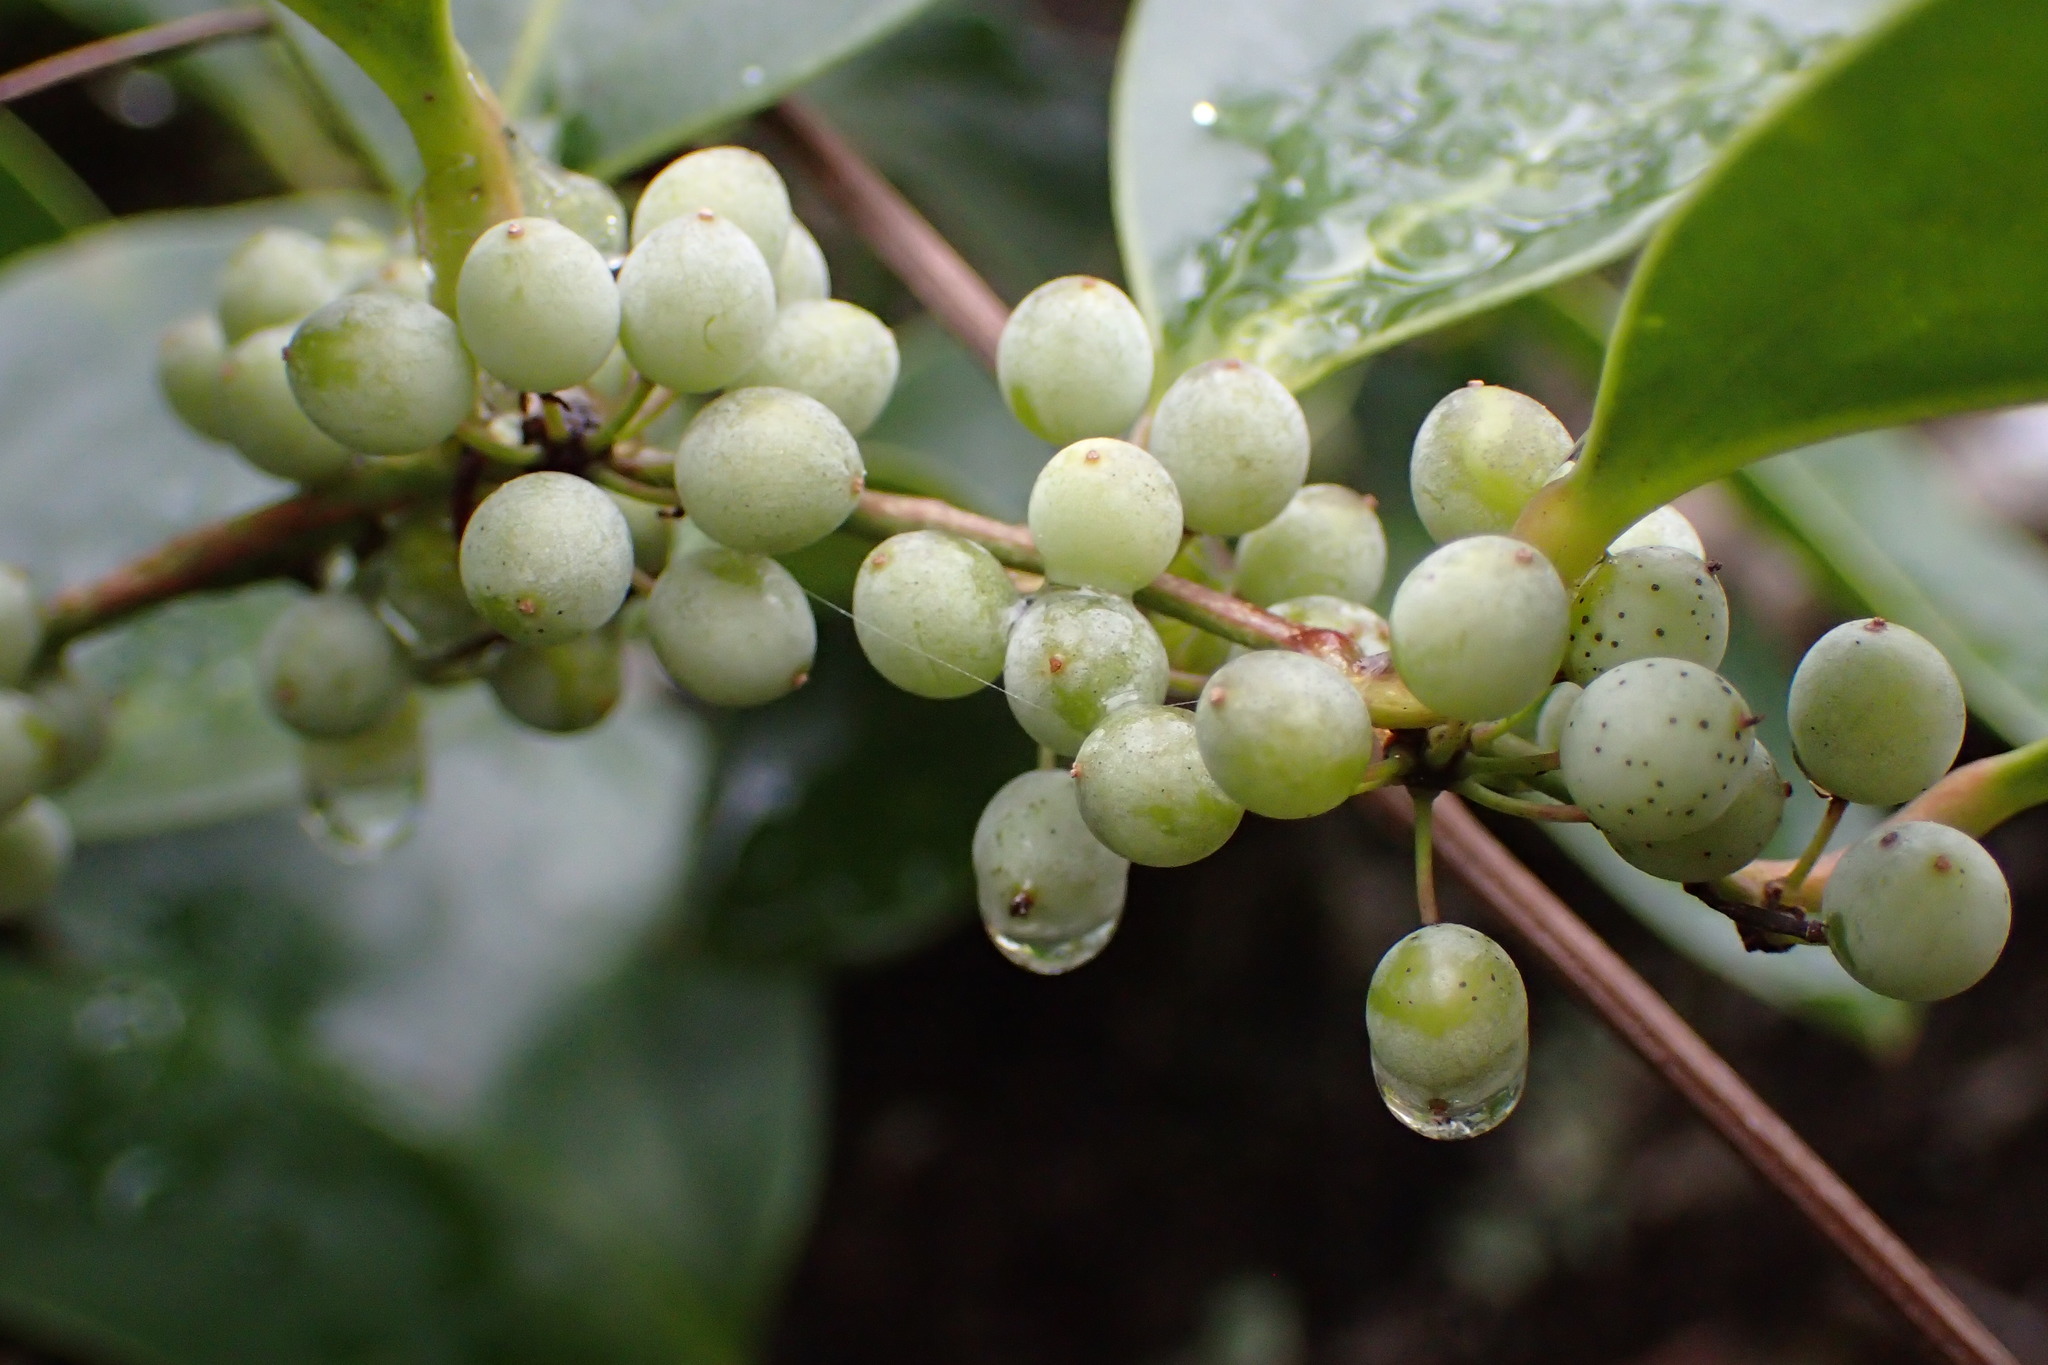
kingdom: Plantae
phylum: Tracheophyta
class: Liliopsida
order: Liliales
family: Smilacaceae
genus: Smilax
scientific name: Smilax laurifolia
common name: Bamboovine
